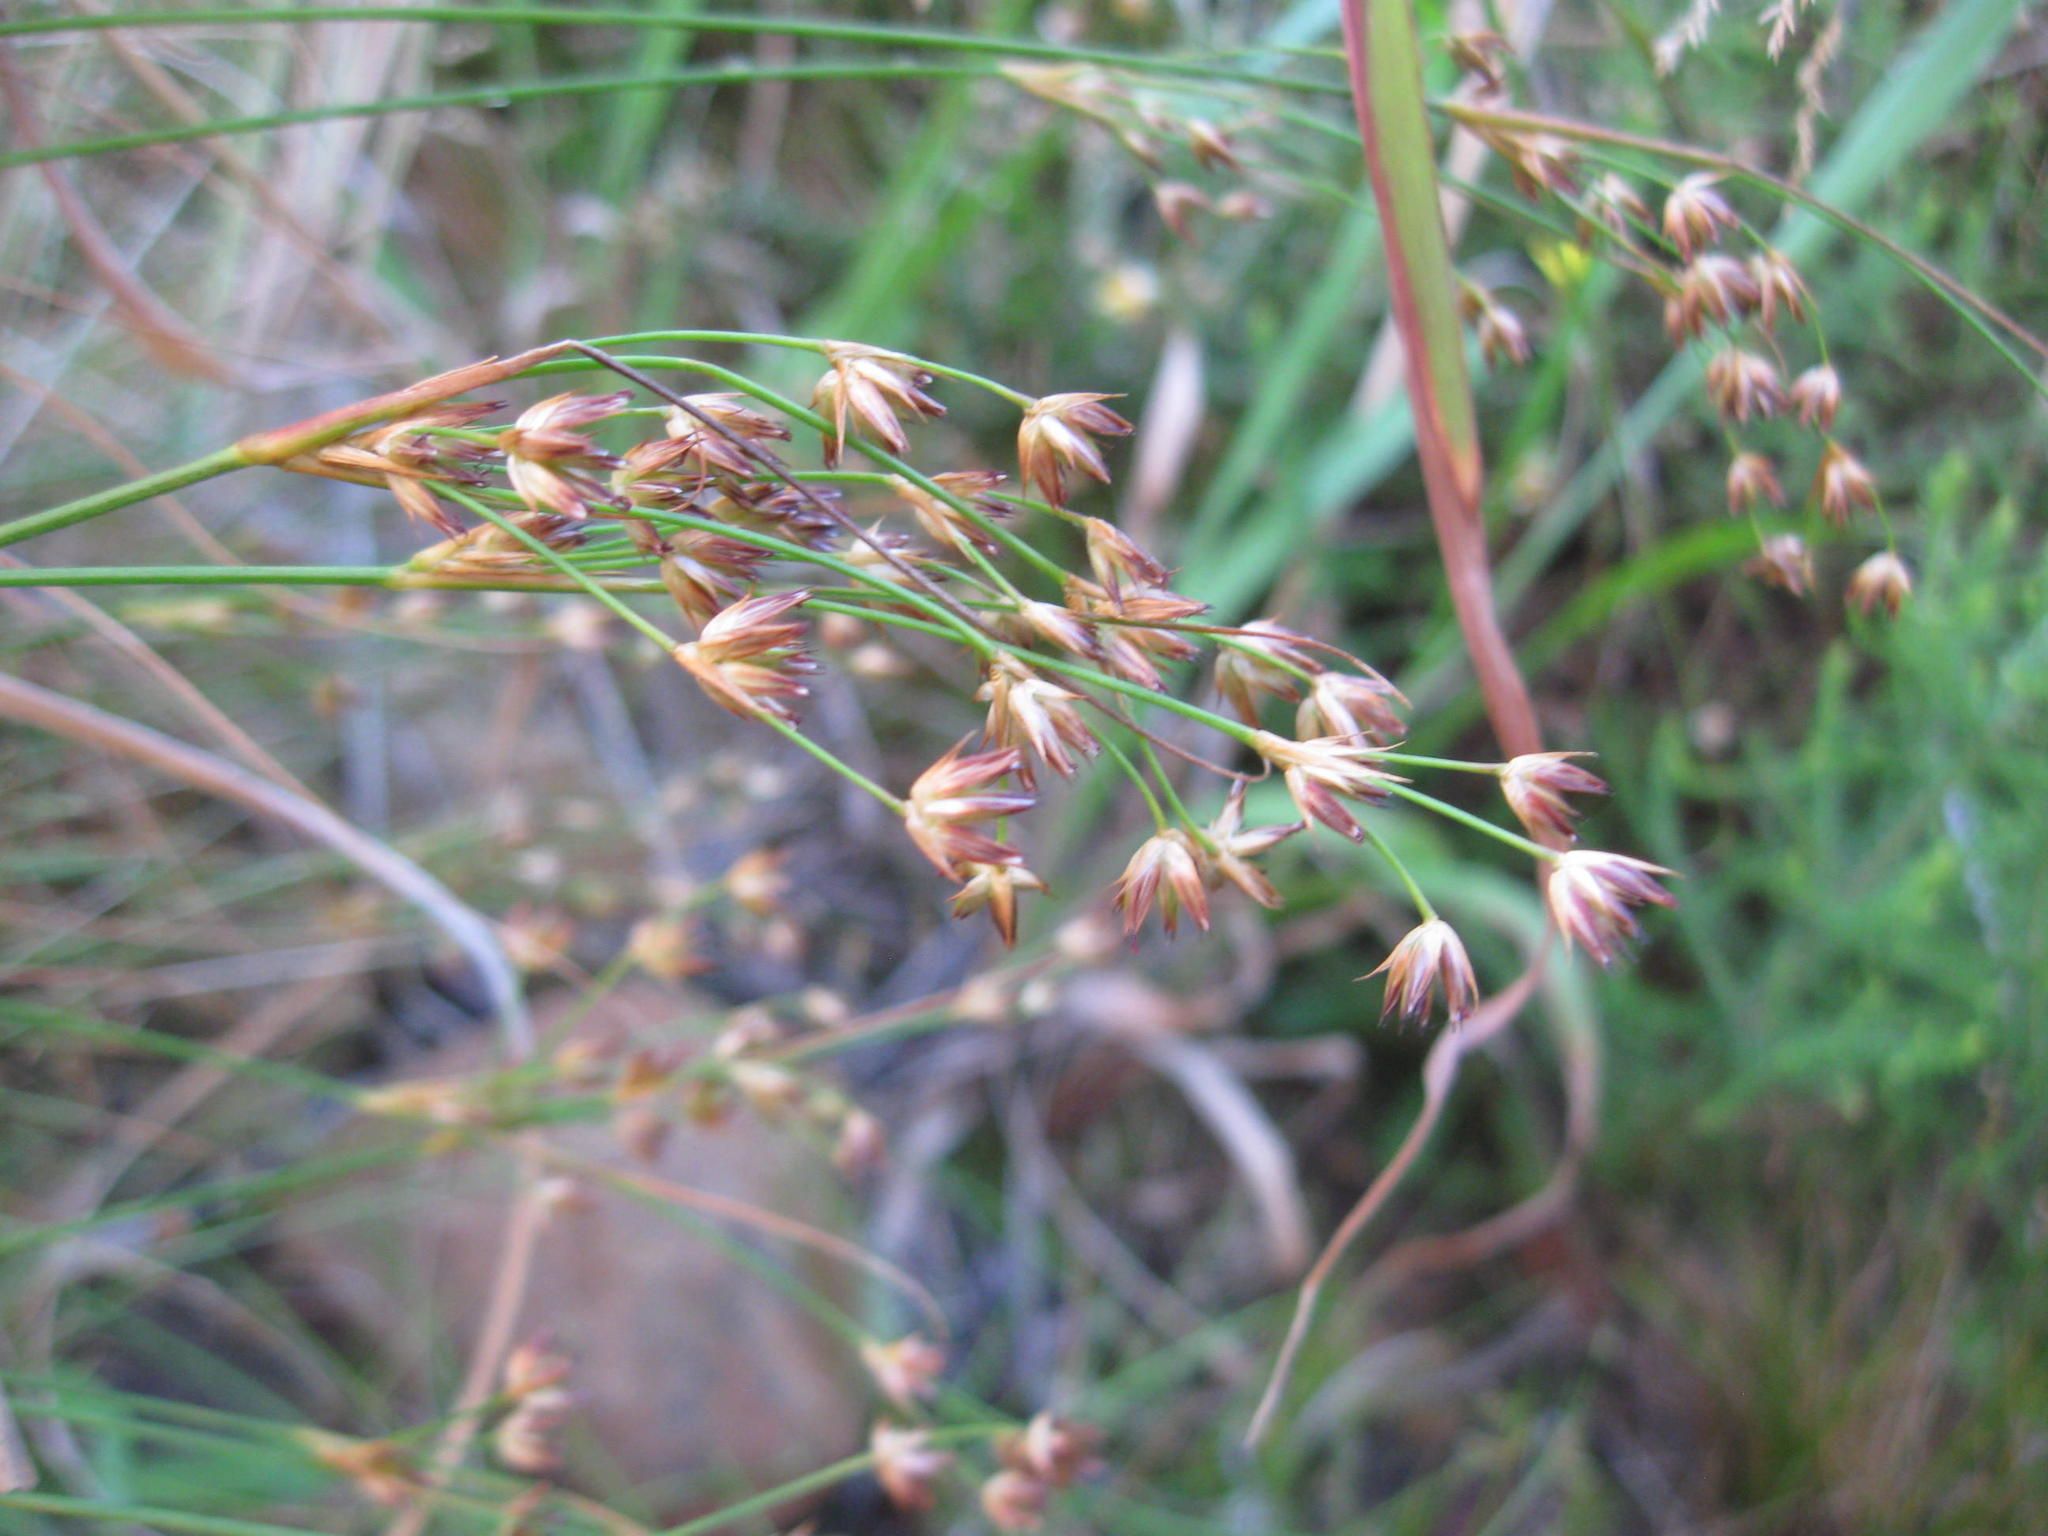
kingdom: Plantae
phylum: Tracheophyta
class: Liliopsida
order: Poales
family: Juncaceae
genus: Juncus
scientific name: Juncus capensis
